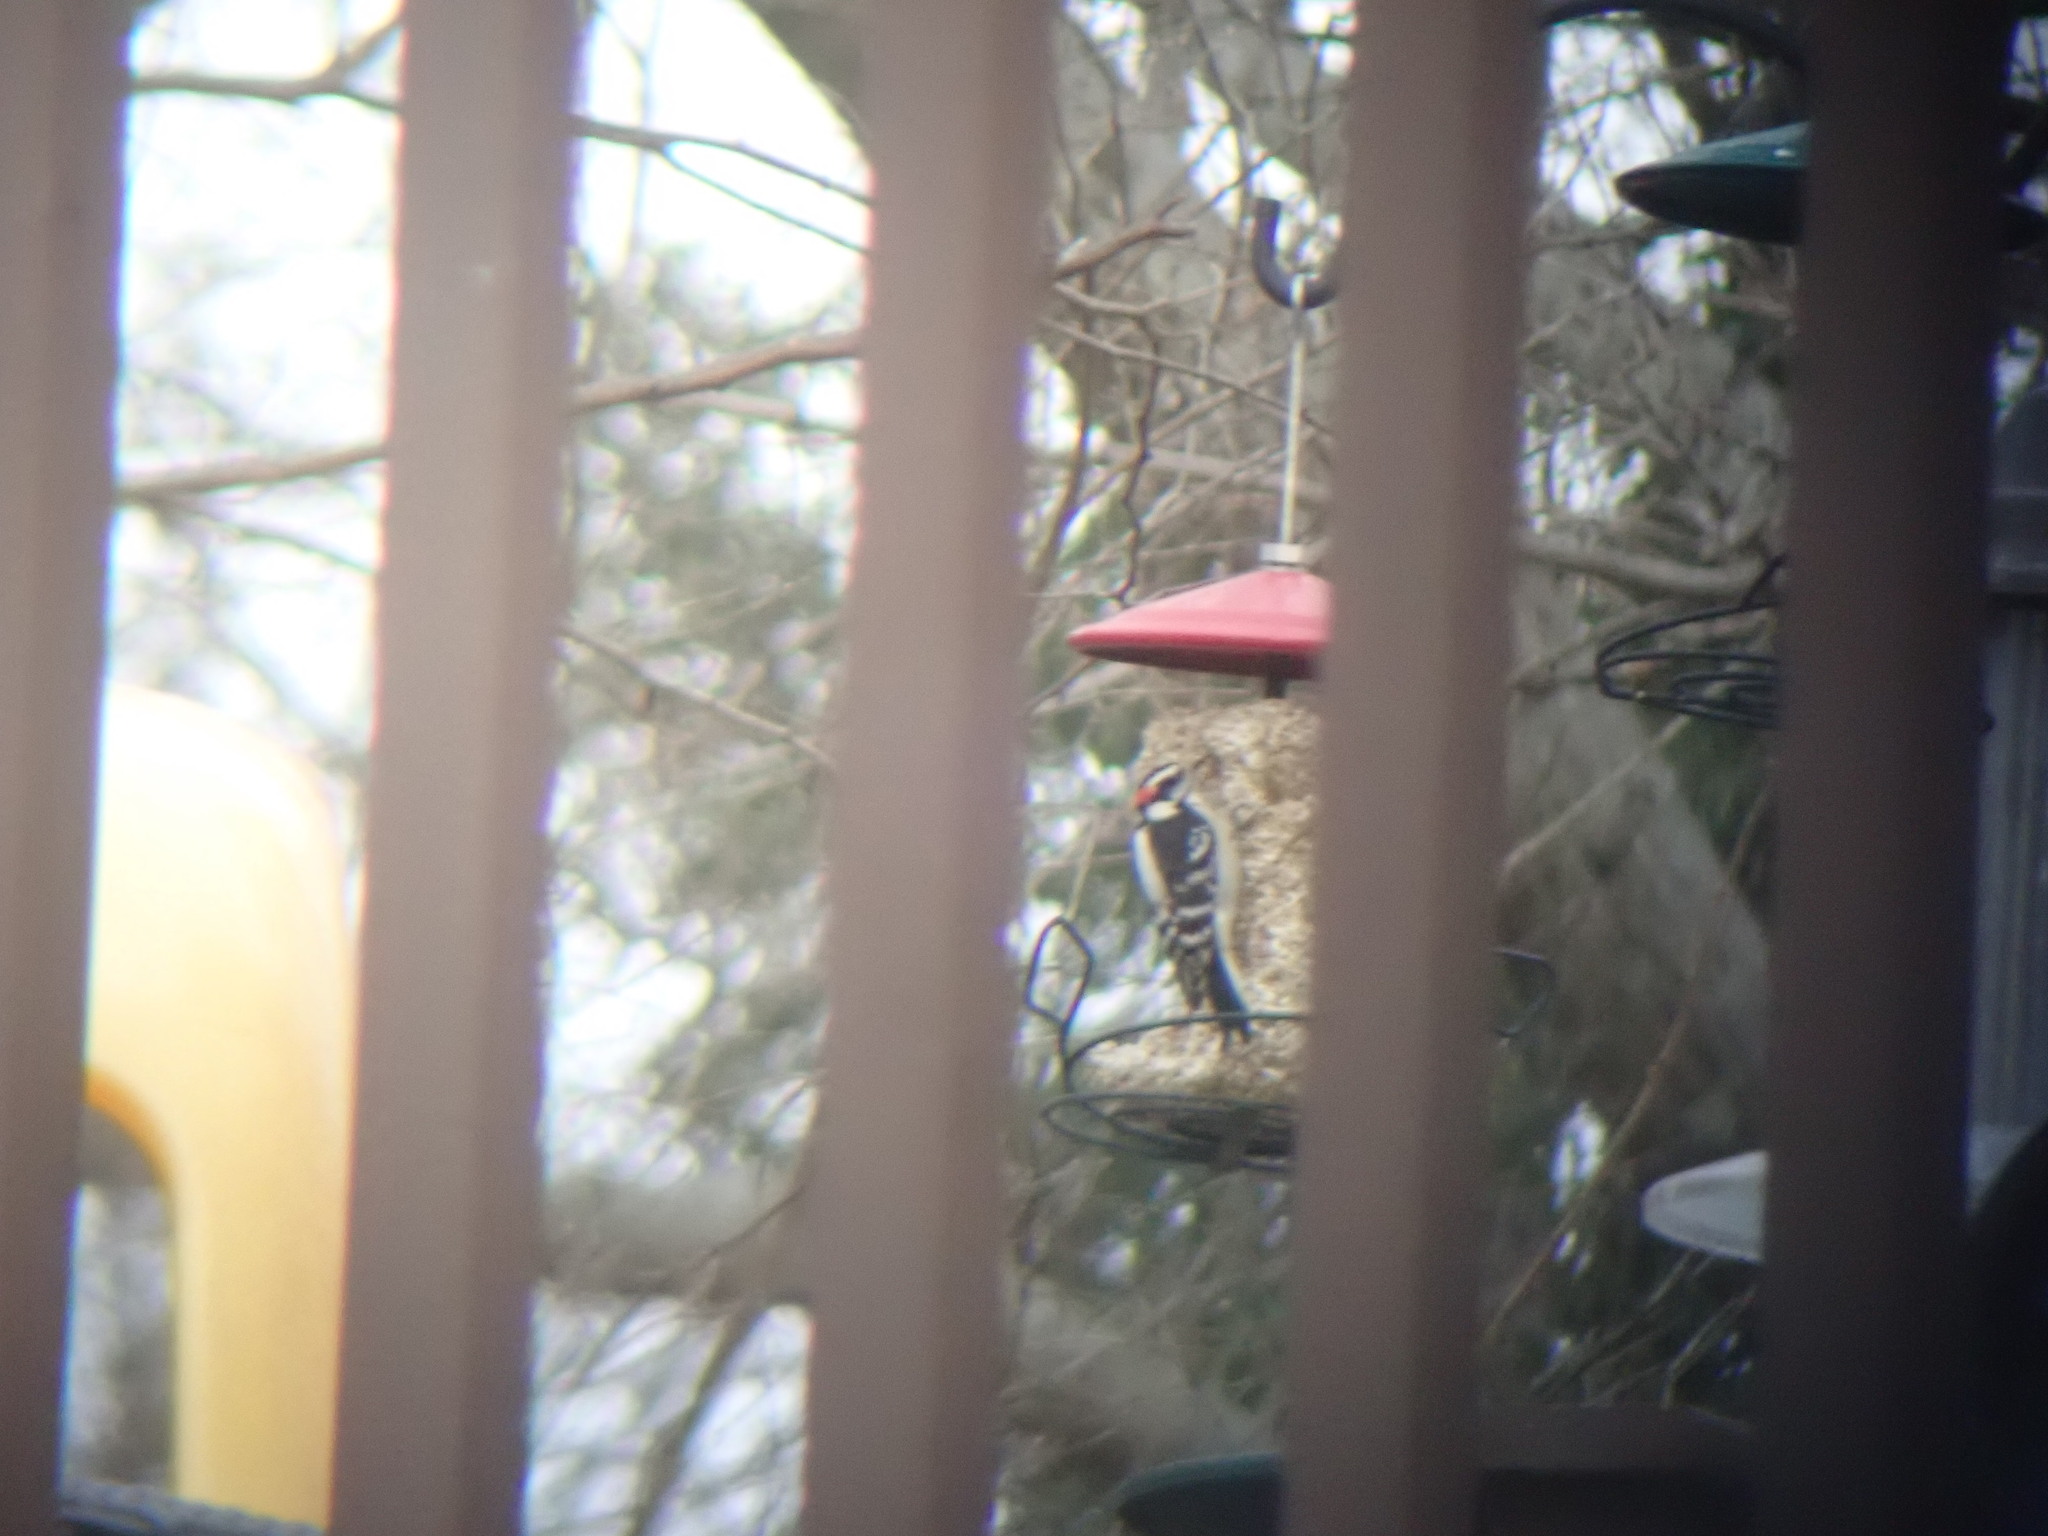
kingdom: Animalia
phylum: Chordata
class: Aves
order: Piciformes
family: Picidae
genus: Dryobates
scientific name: Dryobates pubescens
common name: Downy woodpecker
